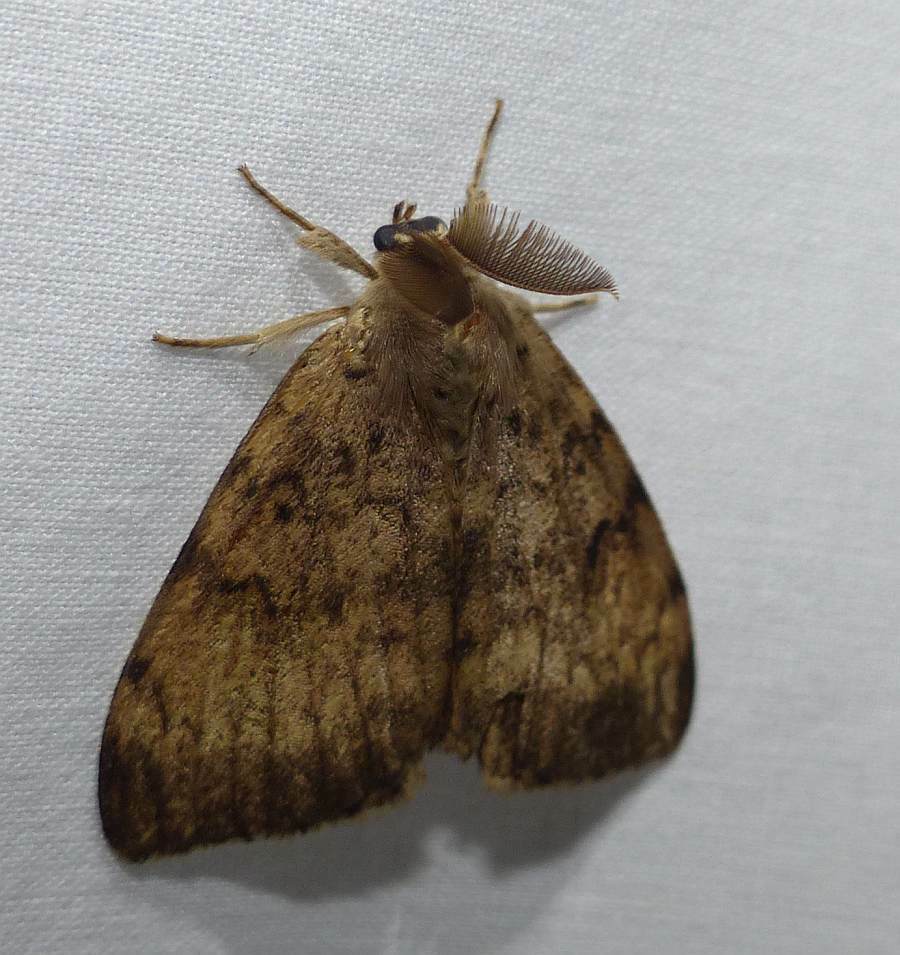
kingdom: Animalia
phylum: Arthropoda
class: Insecta
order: Lepidoptera
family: Erebidae
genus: Lymantria
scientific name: Lymantria dispar
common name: Gypsy moth
